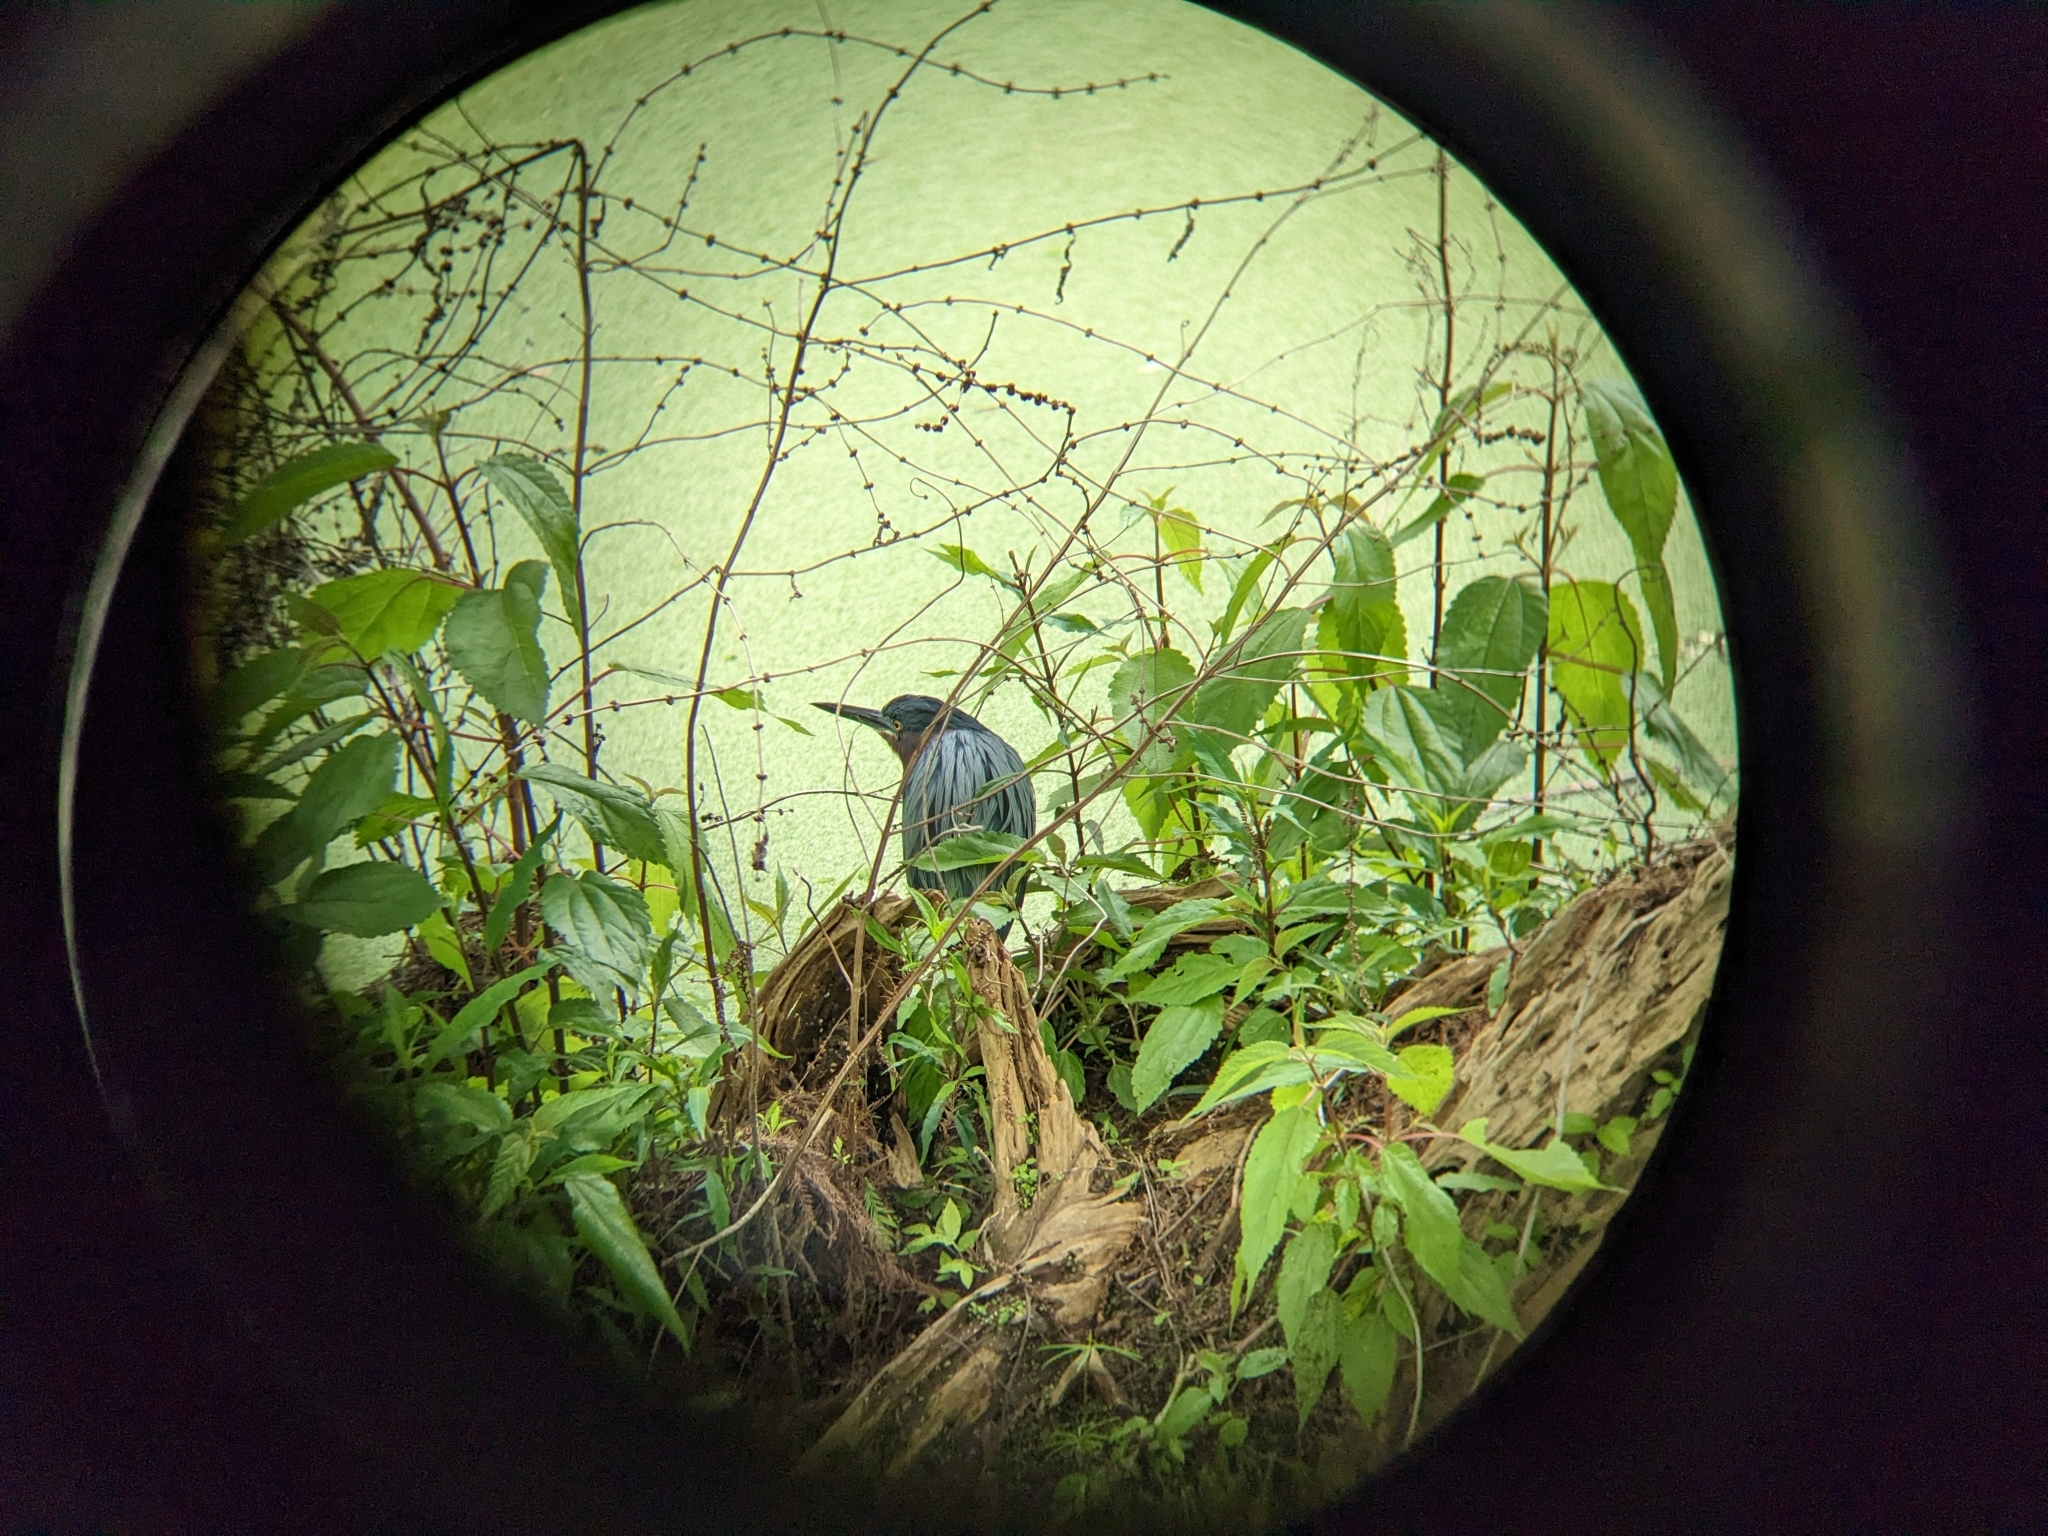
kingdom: Animalia
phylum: Chordata
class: Aves
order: Pelecaniformes
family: Ardeidae
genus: Butorides
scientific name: Butorides virescens
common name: Green heron
